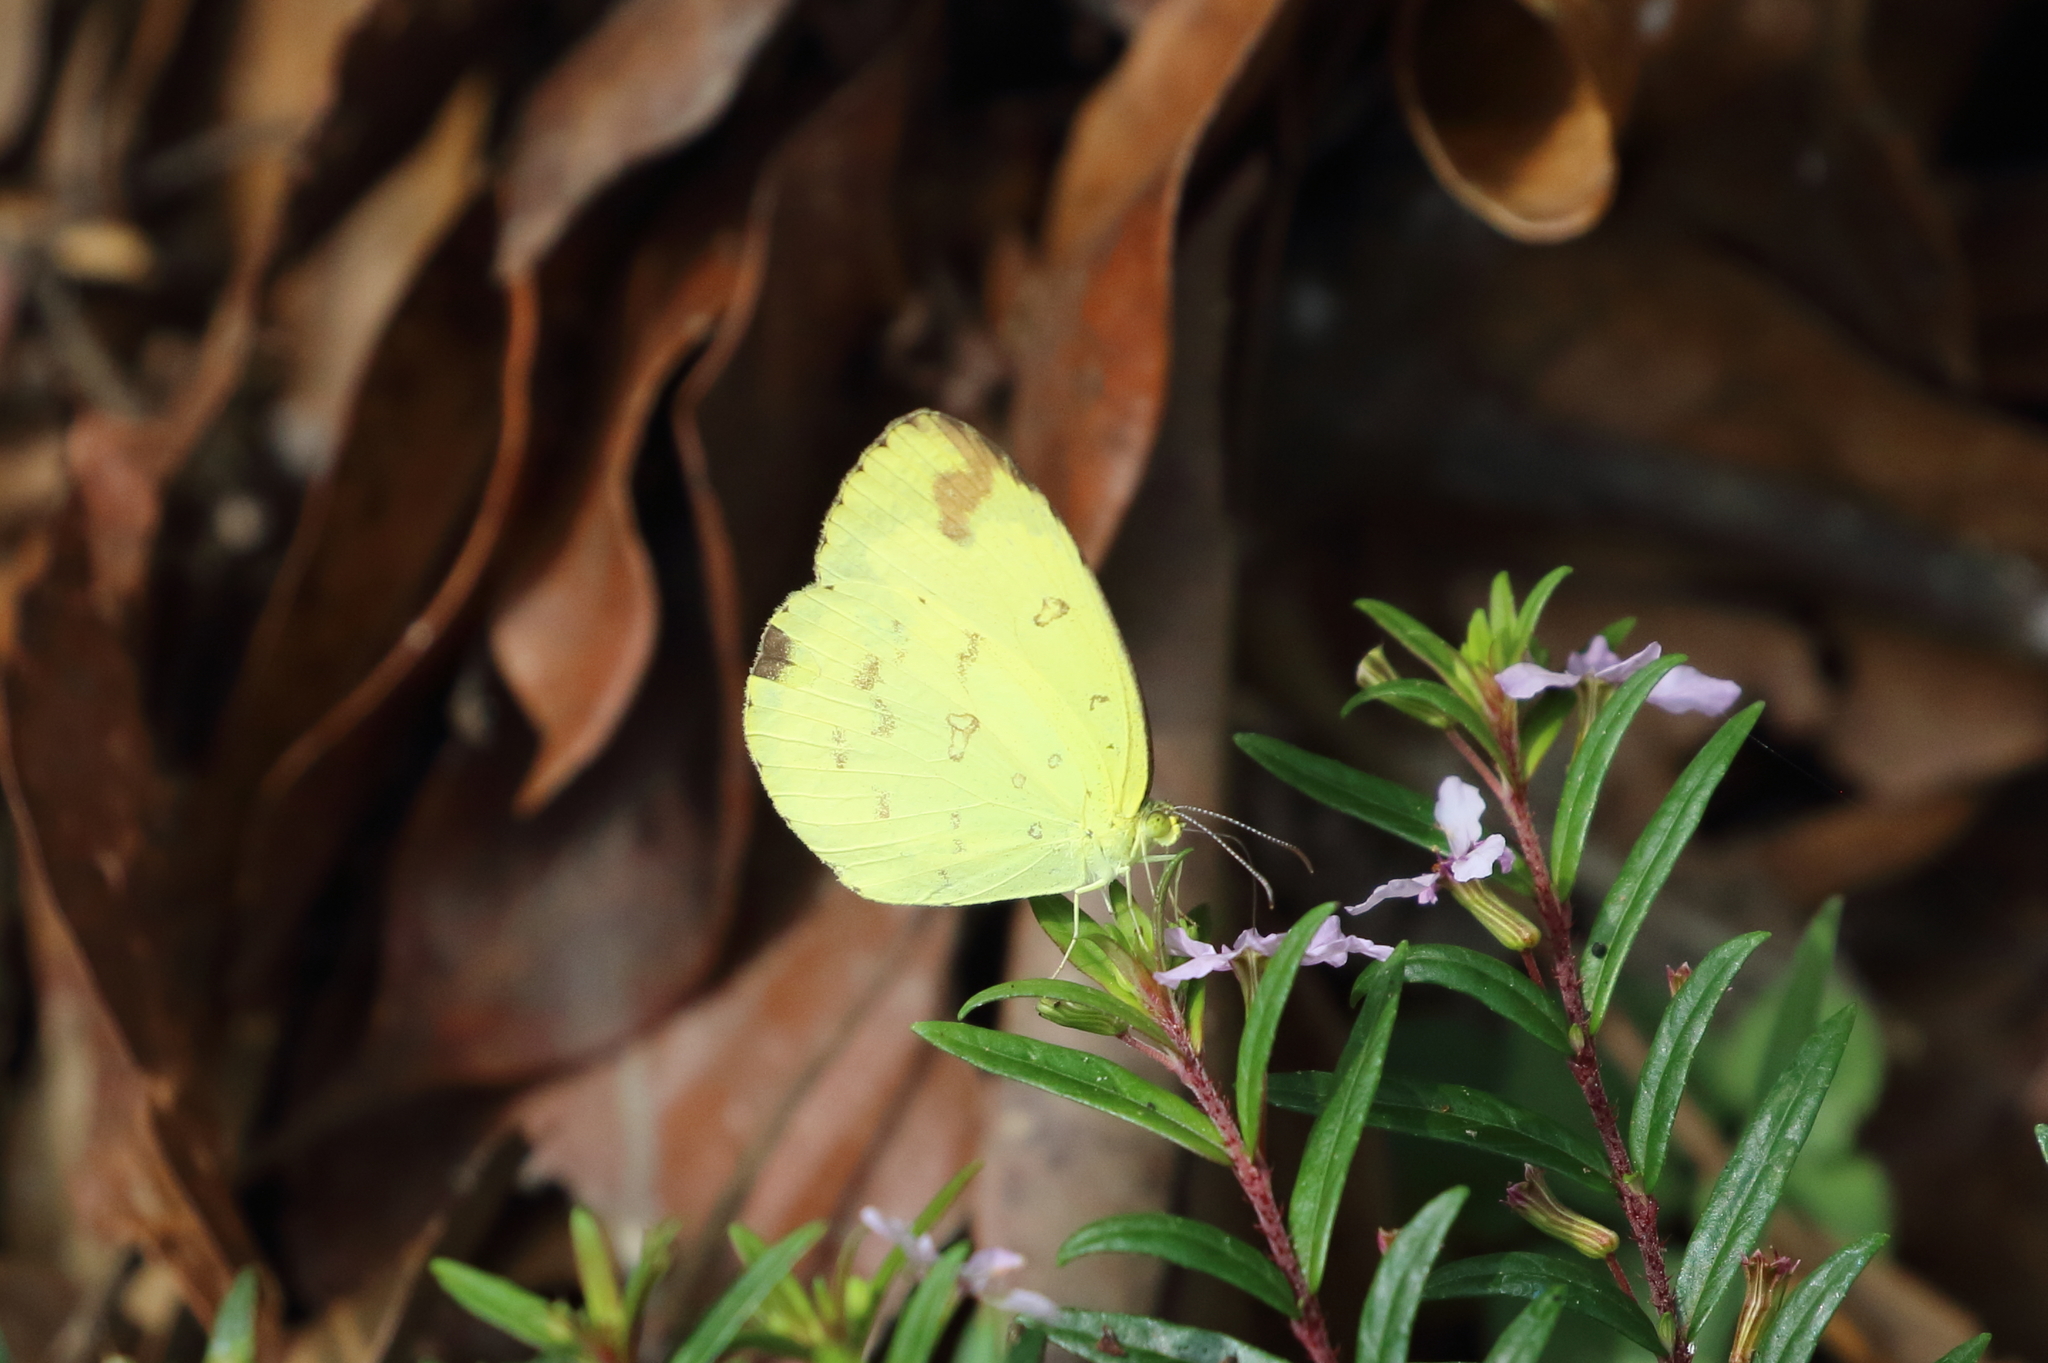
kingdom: Animalia
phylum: Arthropoda
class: Insecta
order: Lepidoptera
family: Pieridae
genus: Eurema
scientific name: Eurema hecabe
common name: Pale grass yellow
